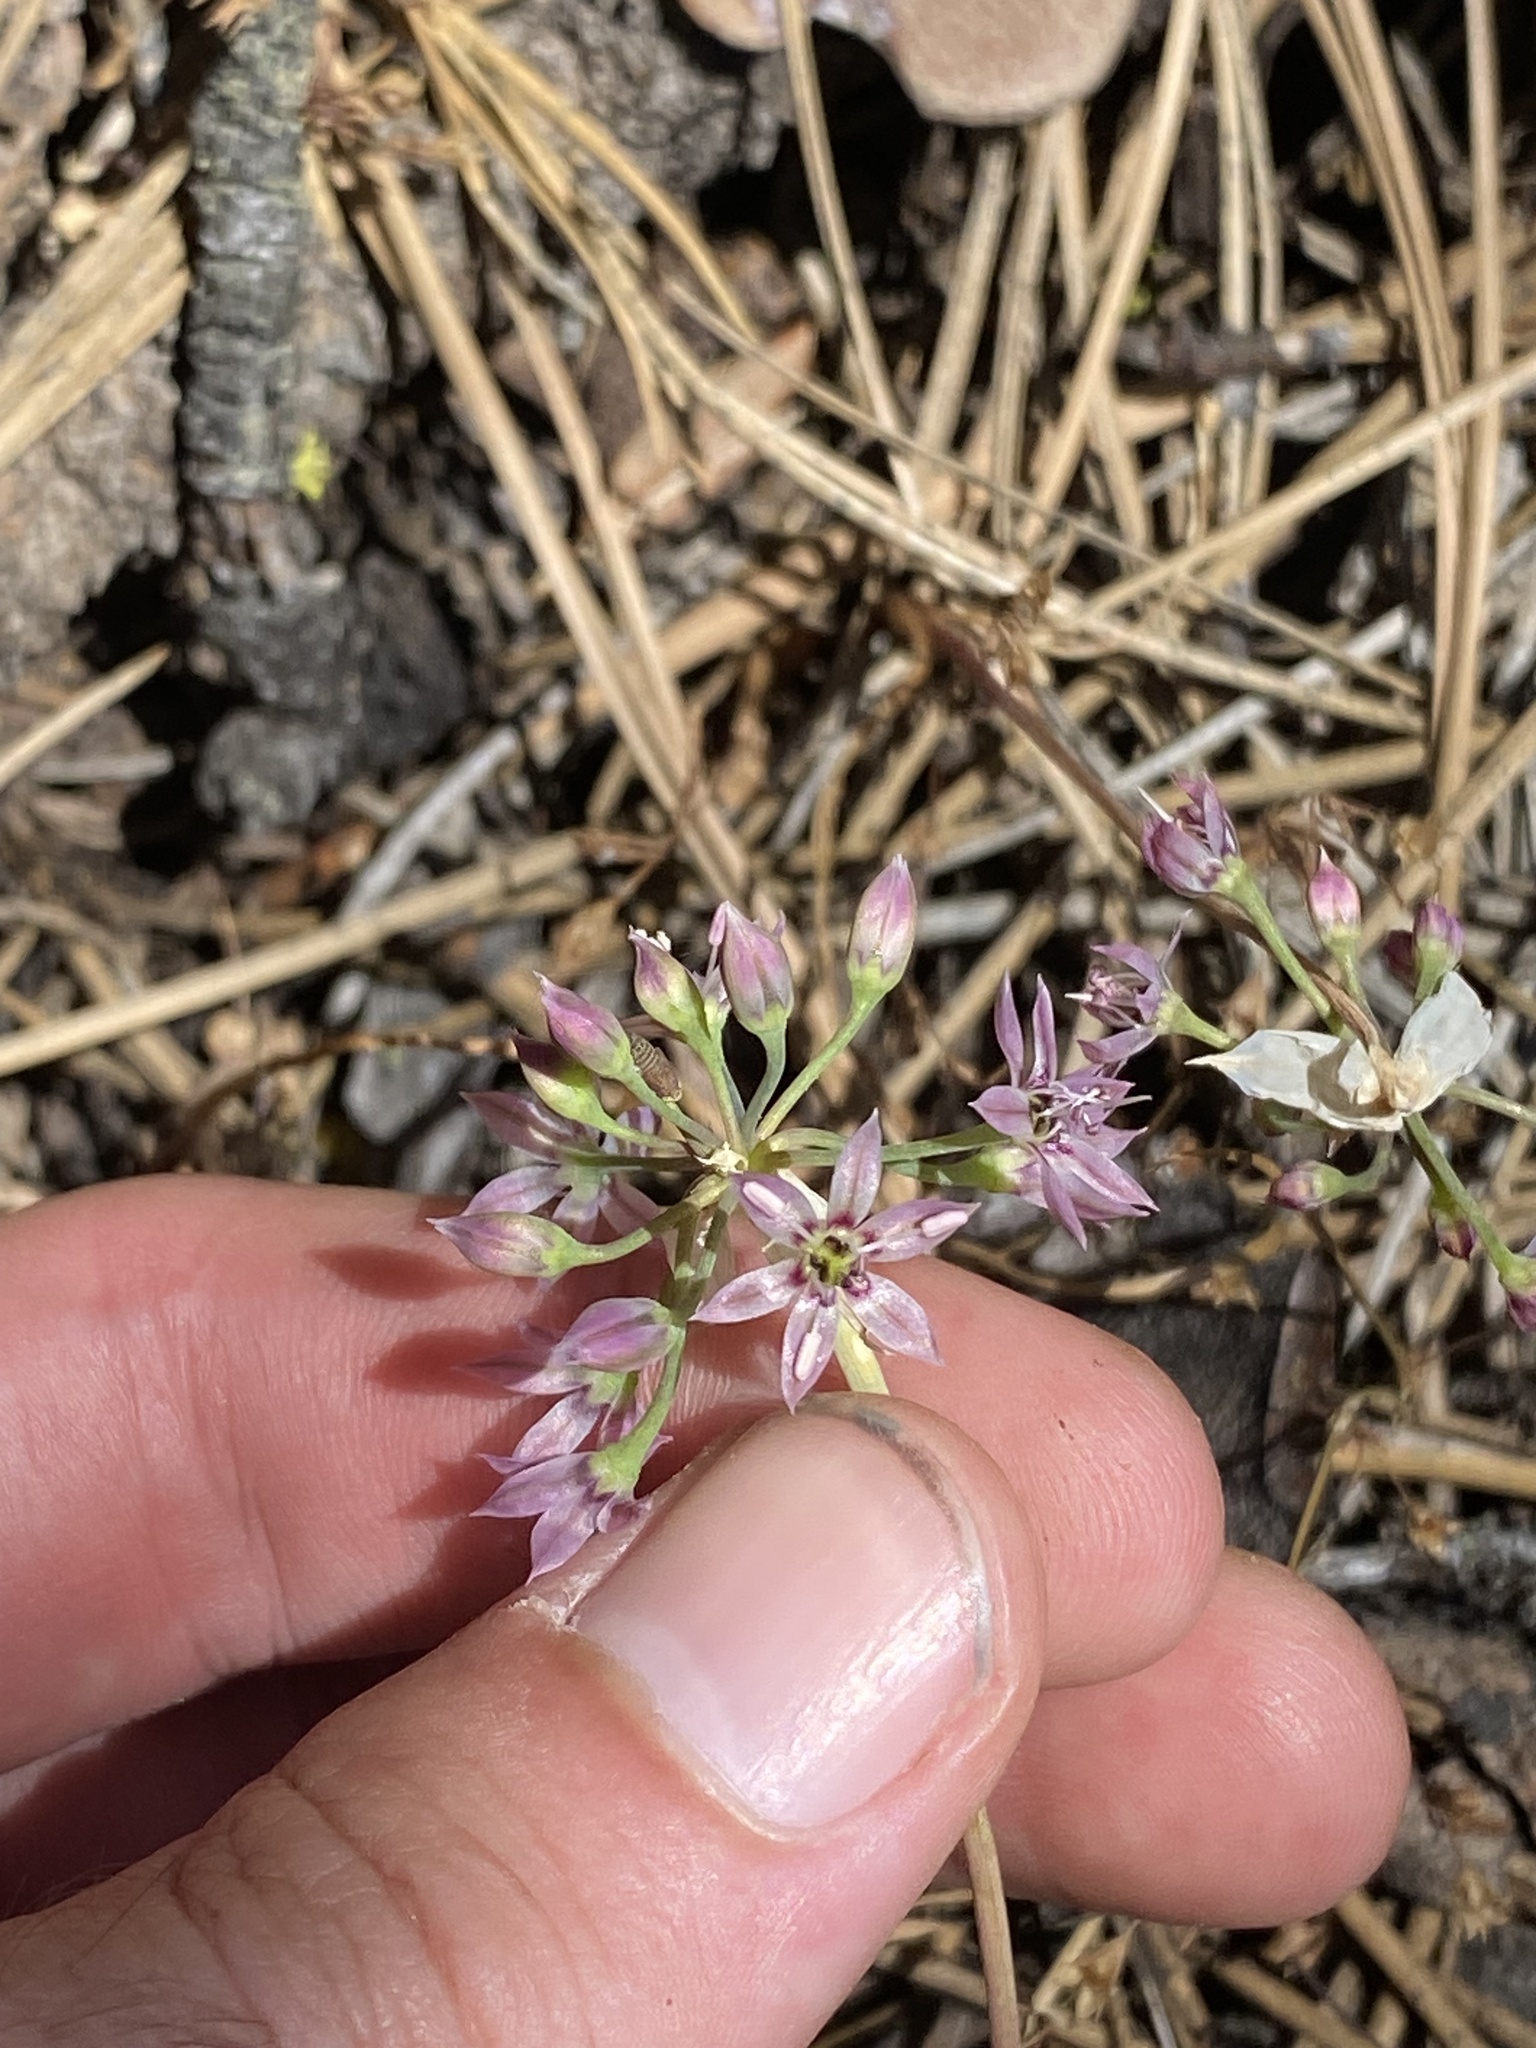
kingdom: Plantae
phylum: Tracheophyta
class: Liliopsida
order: Asparagales
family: Amaryllidaceae
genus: Allium
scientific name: Allium campanulatum
